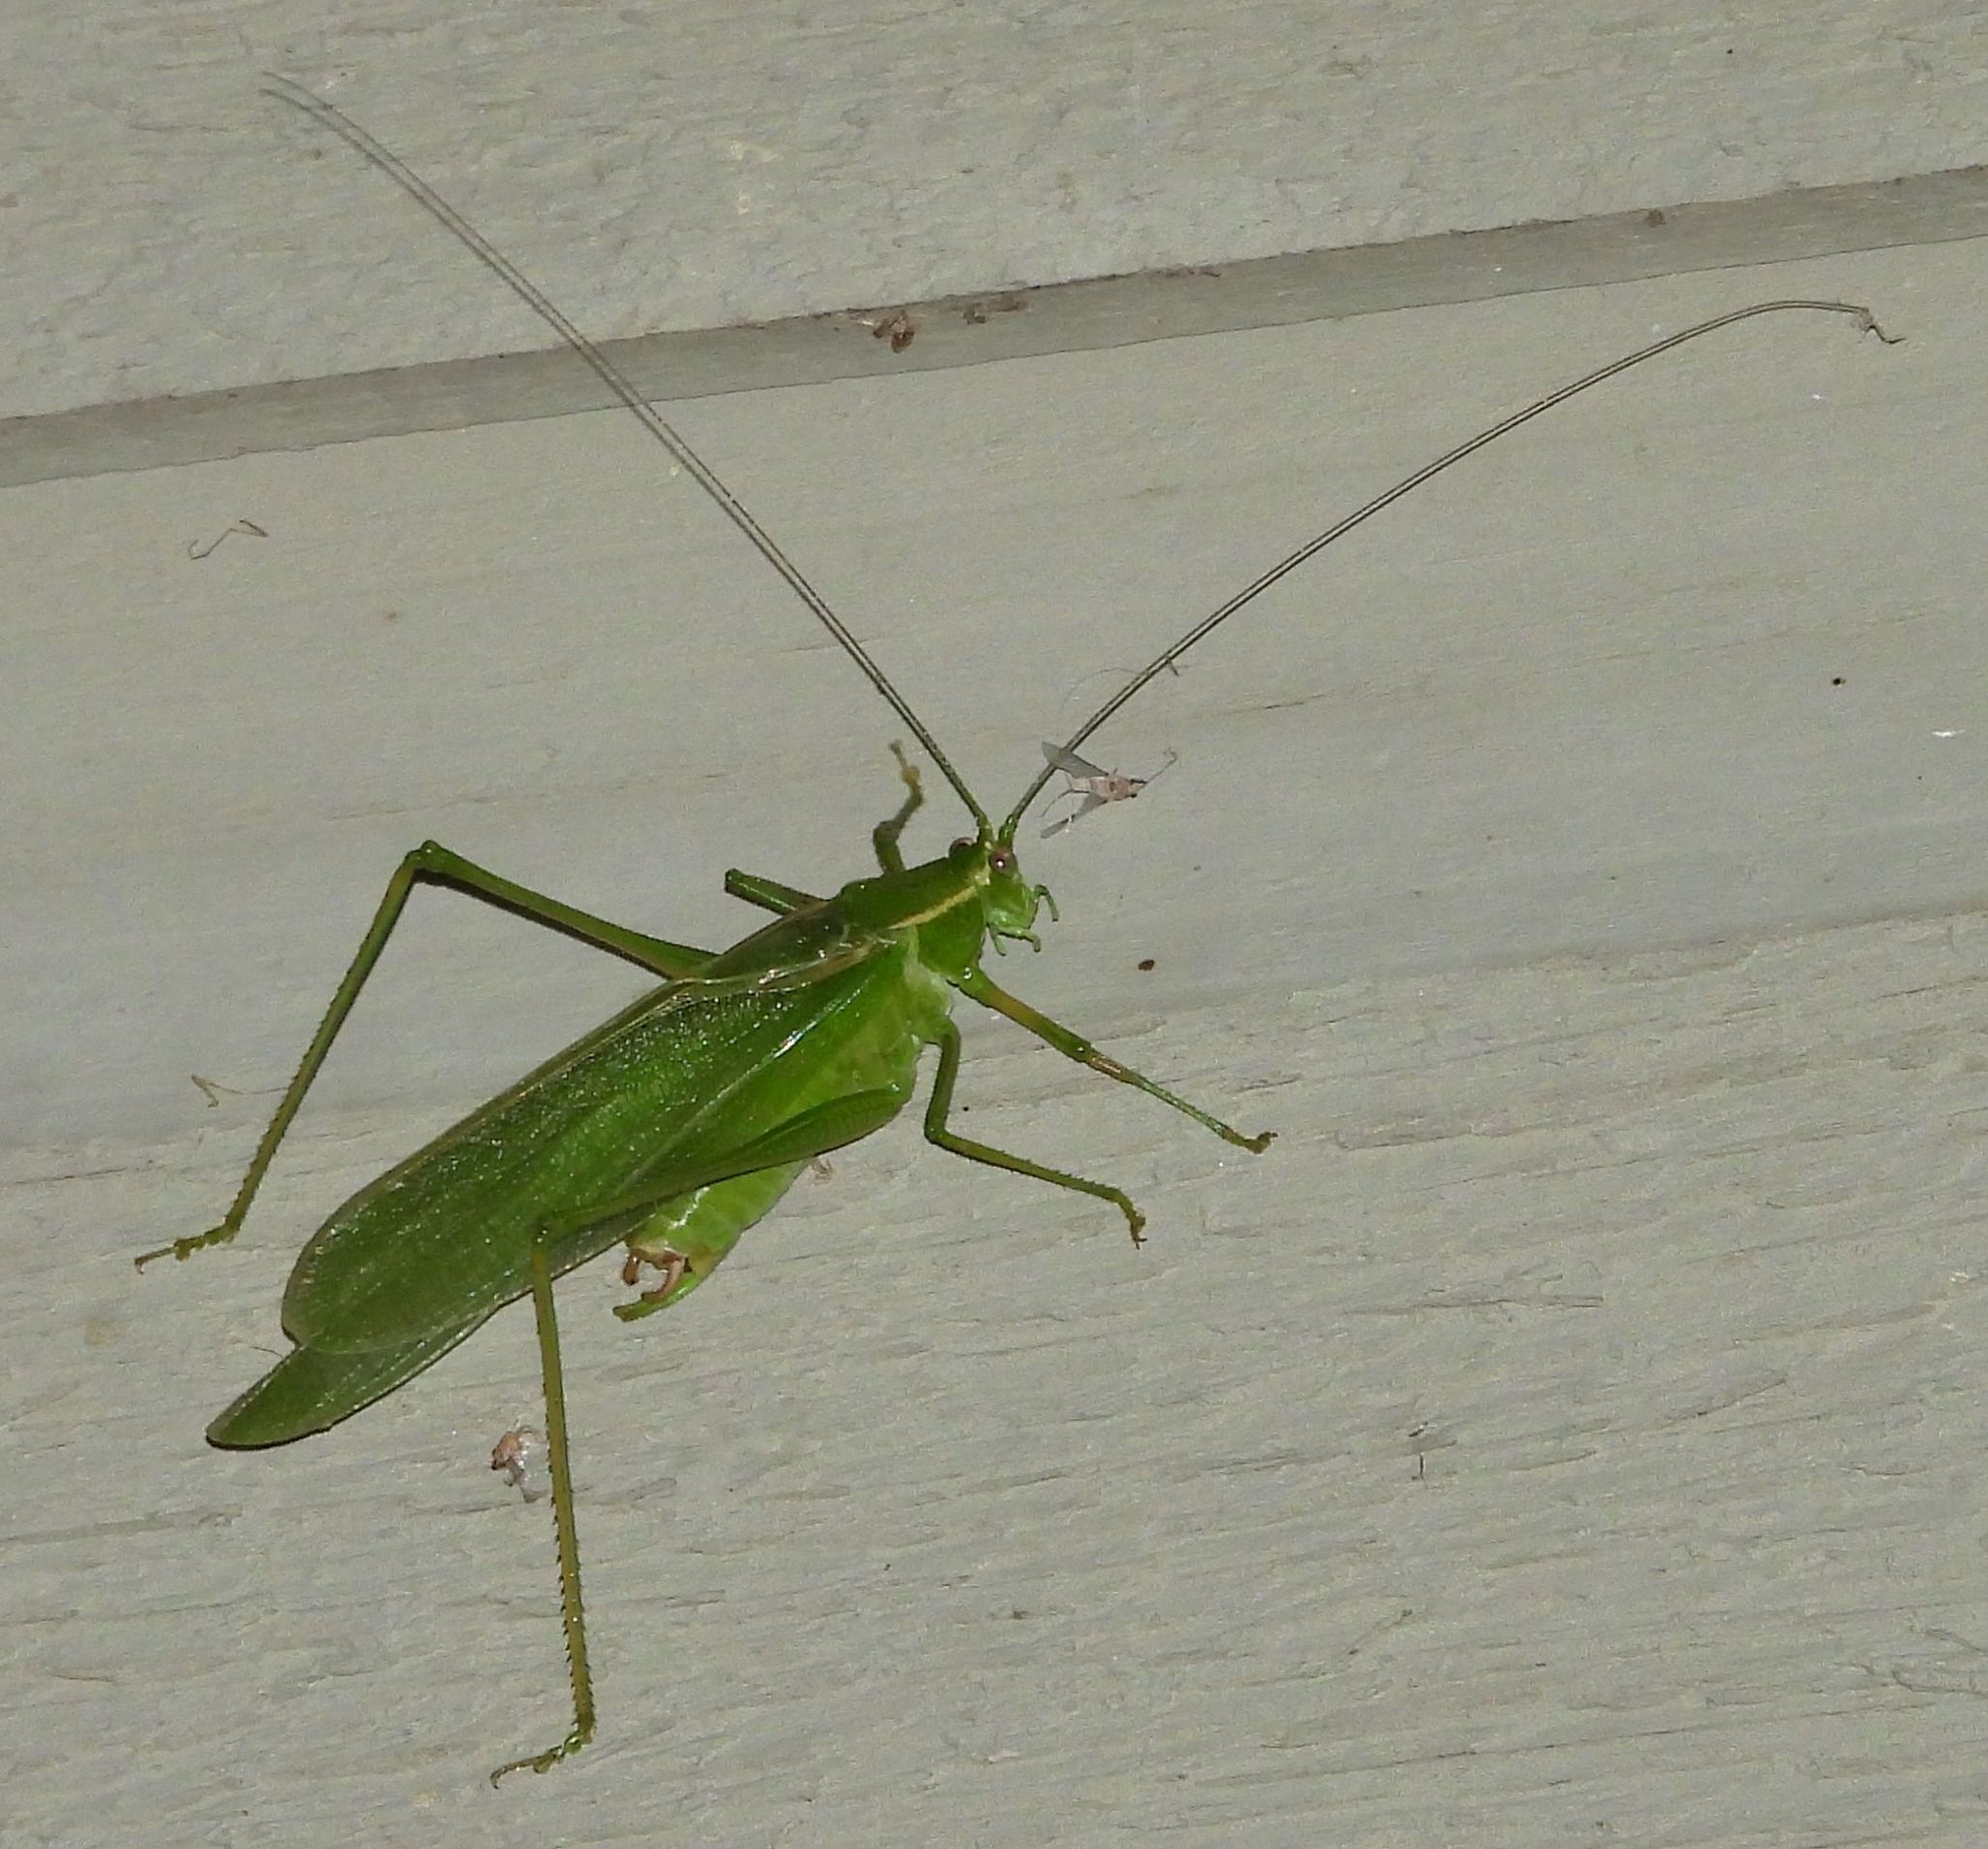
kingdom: Animalia
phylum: Arthropoda
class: Insecta
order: Orthoptera
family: Tettigoniidae
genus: Scudderia
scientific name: Scudderia septentrionalis
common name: Northern bush-katydid
